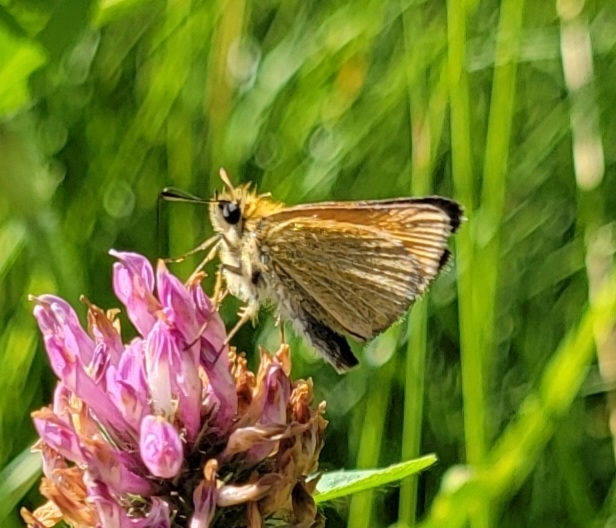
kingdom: Animalia
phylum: Arthropoda
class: Insecta
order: Lepidoptera
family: Hesperiidae
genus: Thymelicus
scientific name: Thymelicus lineola
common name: Essex skipper
